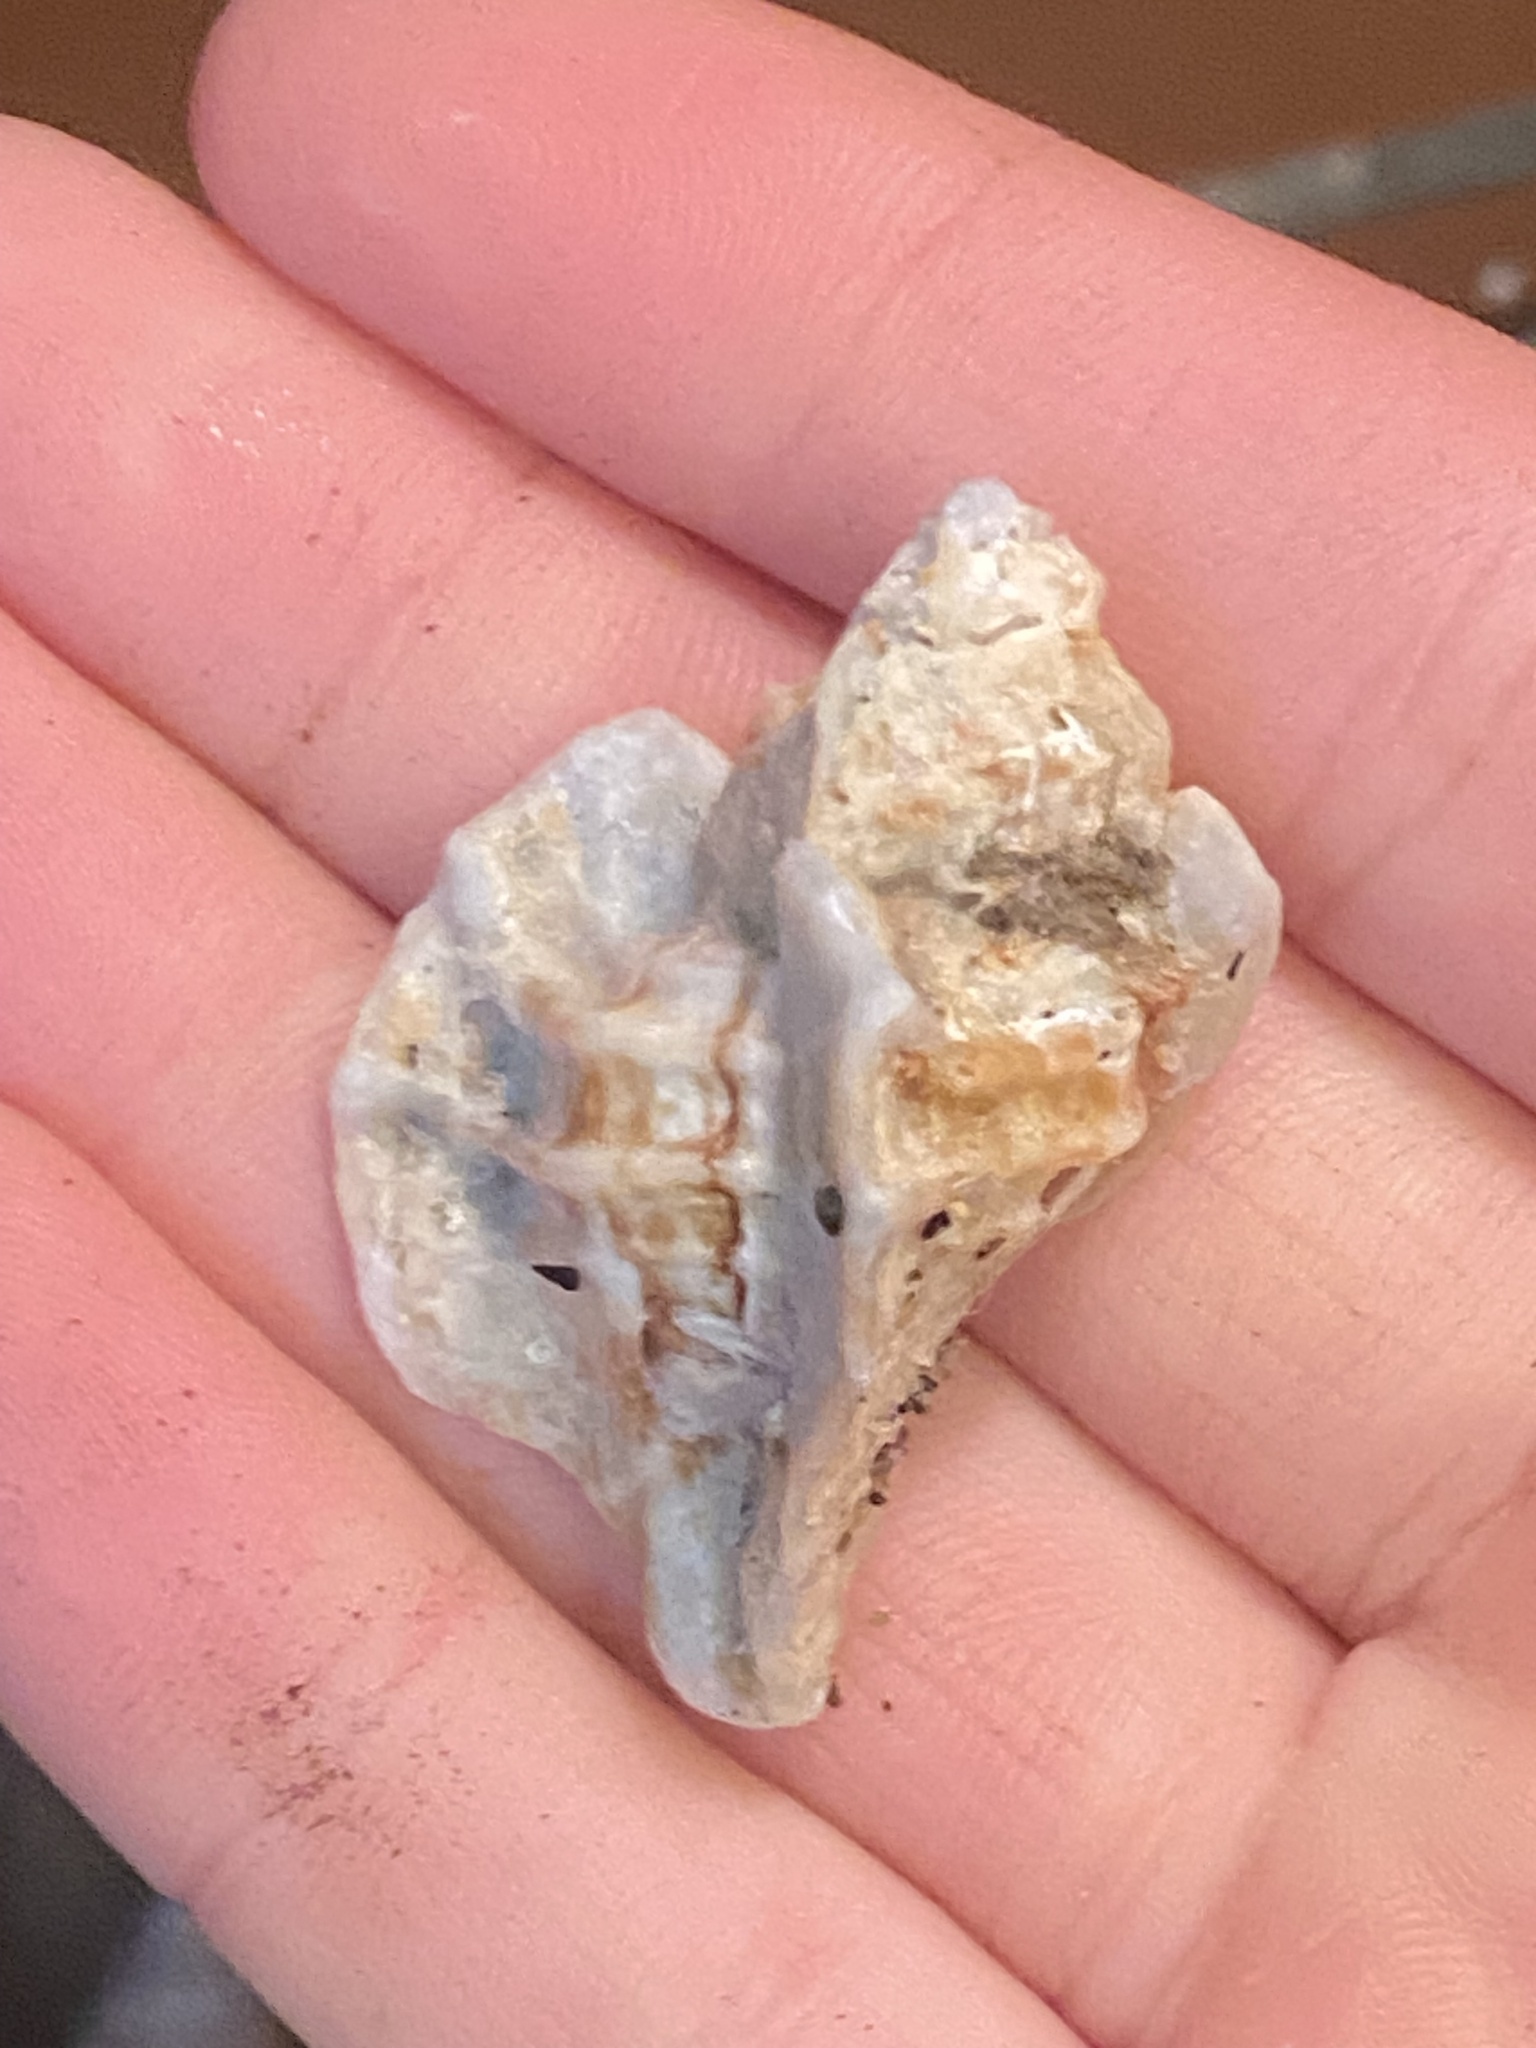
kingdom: Animalia
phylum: Mollusca
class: Gastropoda
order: Neogastropoda
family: Muricidae
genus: Ceratostoma
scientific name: Ceratostoma foliatum
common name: Foliate thorn purpura
